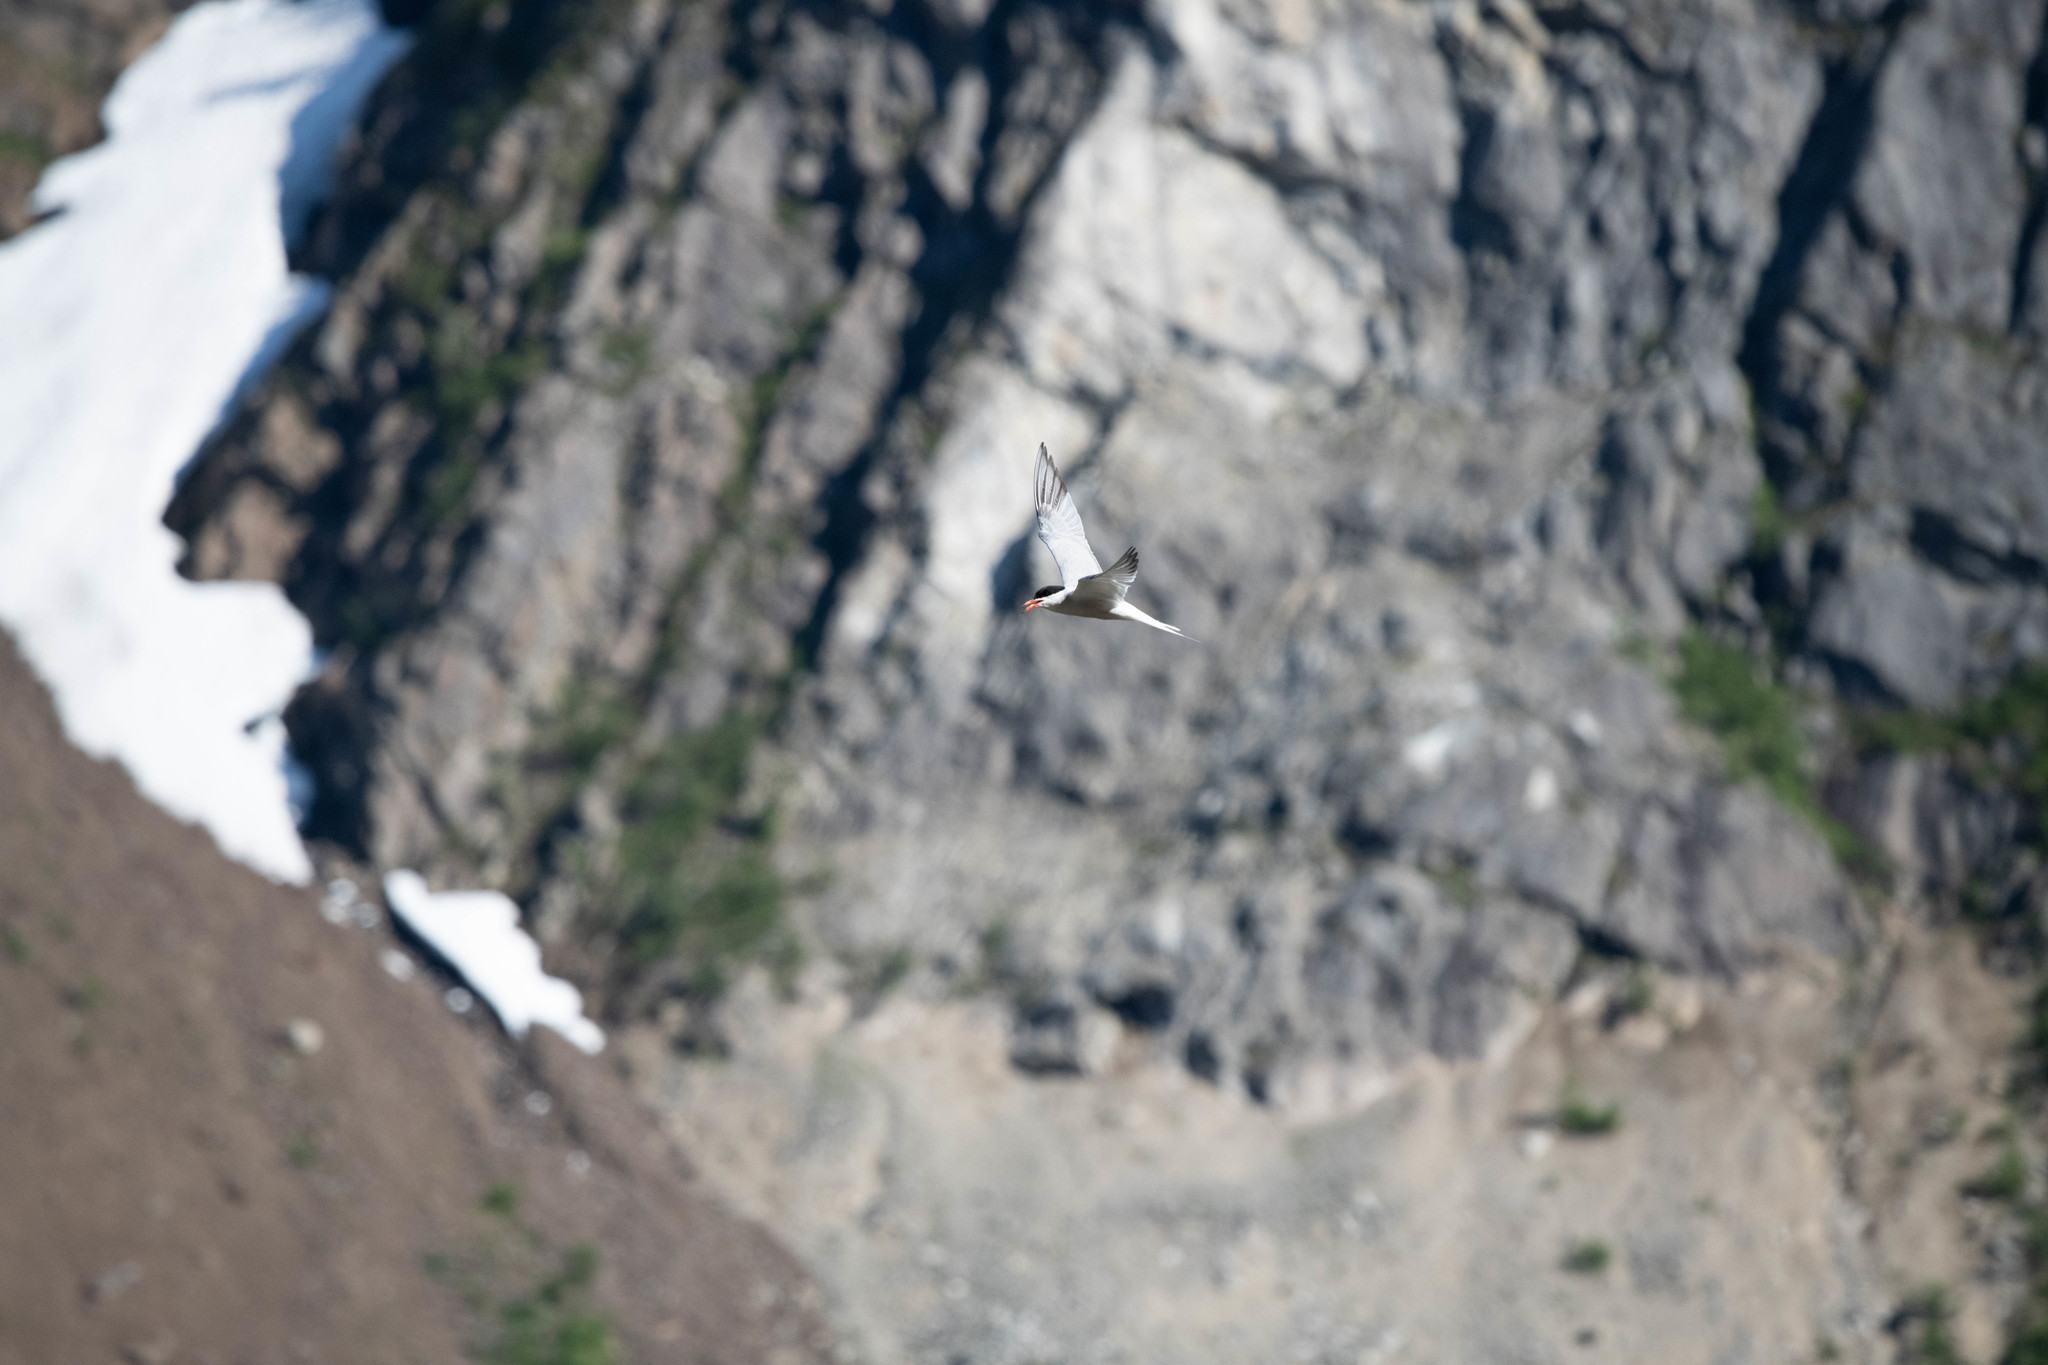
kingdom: Animalia
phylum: Chordata
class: Aves
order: Charadriiformes
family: Laridae
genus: Sterna
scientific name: Sterna hirundo
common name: Common tern
